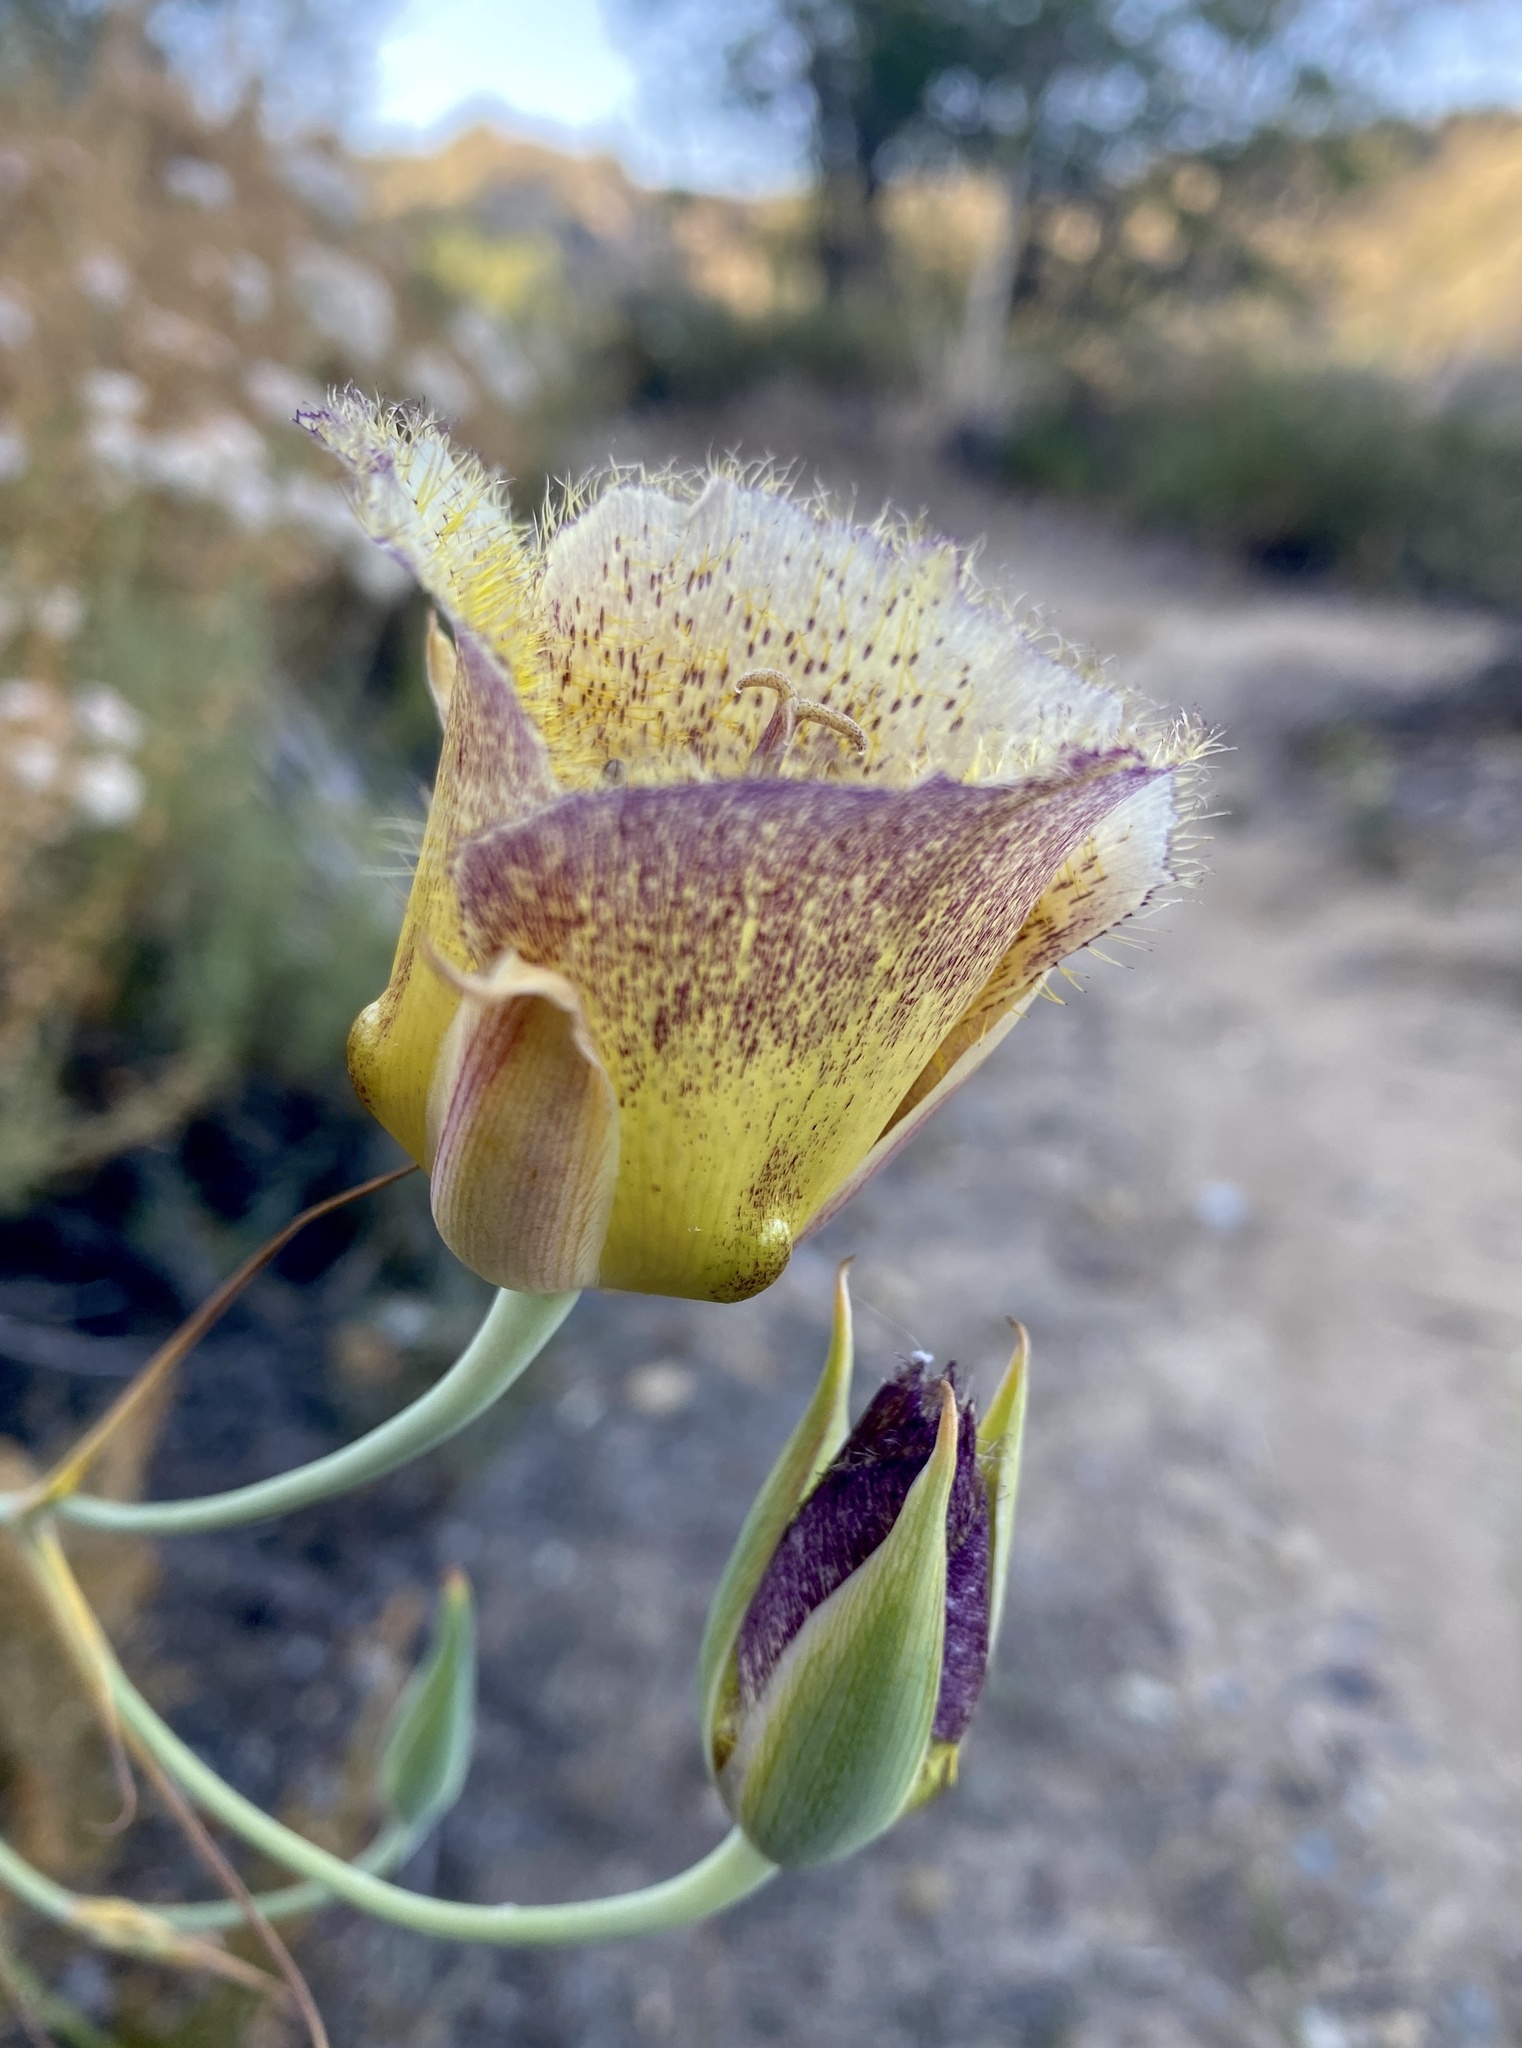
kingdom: Plantae
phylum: Tracheophyta
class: Liliopsida
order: Liliales
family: Liliaceae
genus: Calochortus
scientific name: Calochortus weedii
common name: Weed's mariposa-lily
